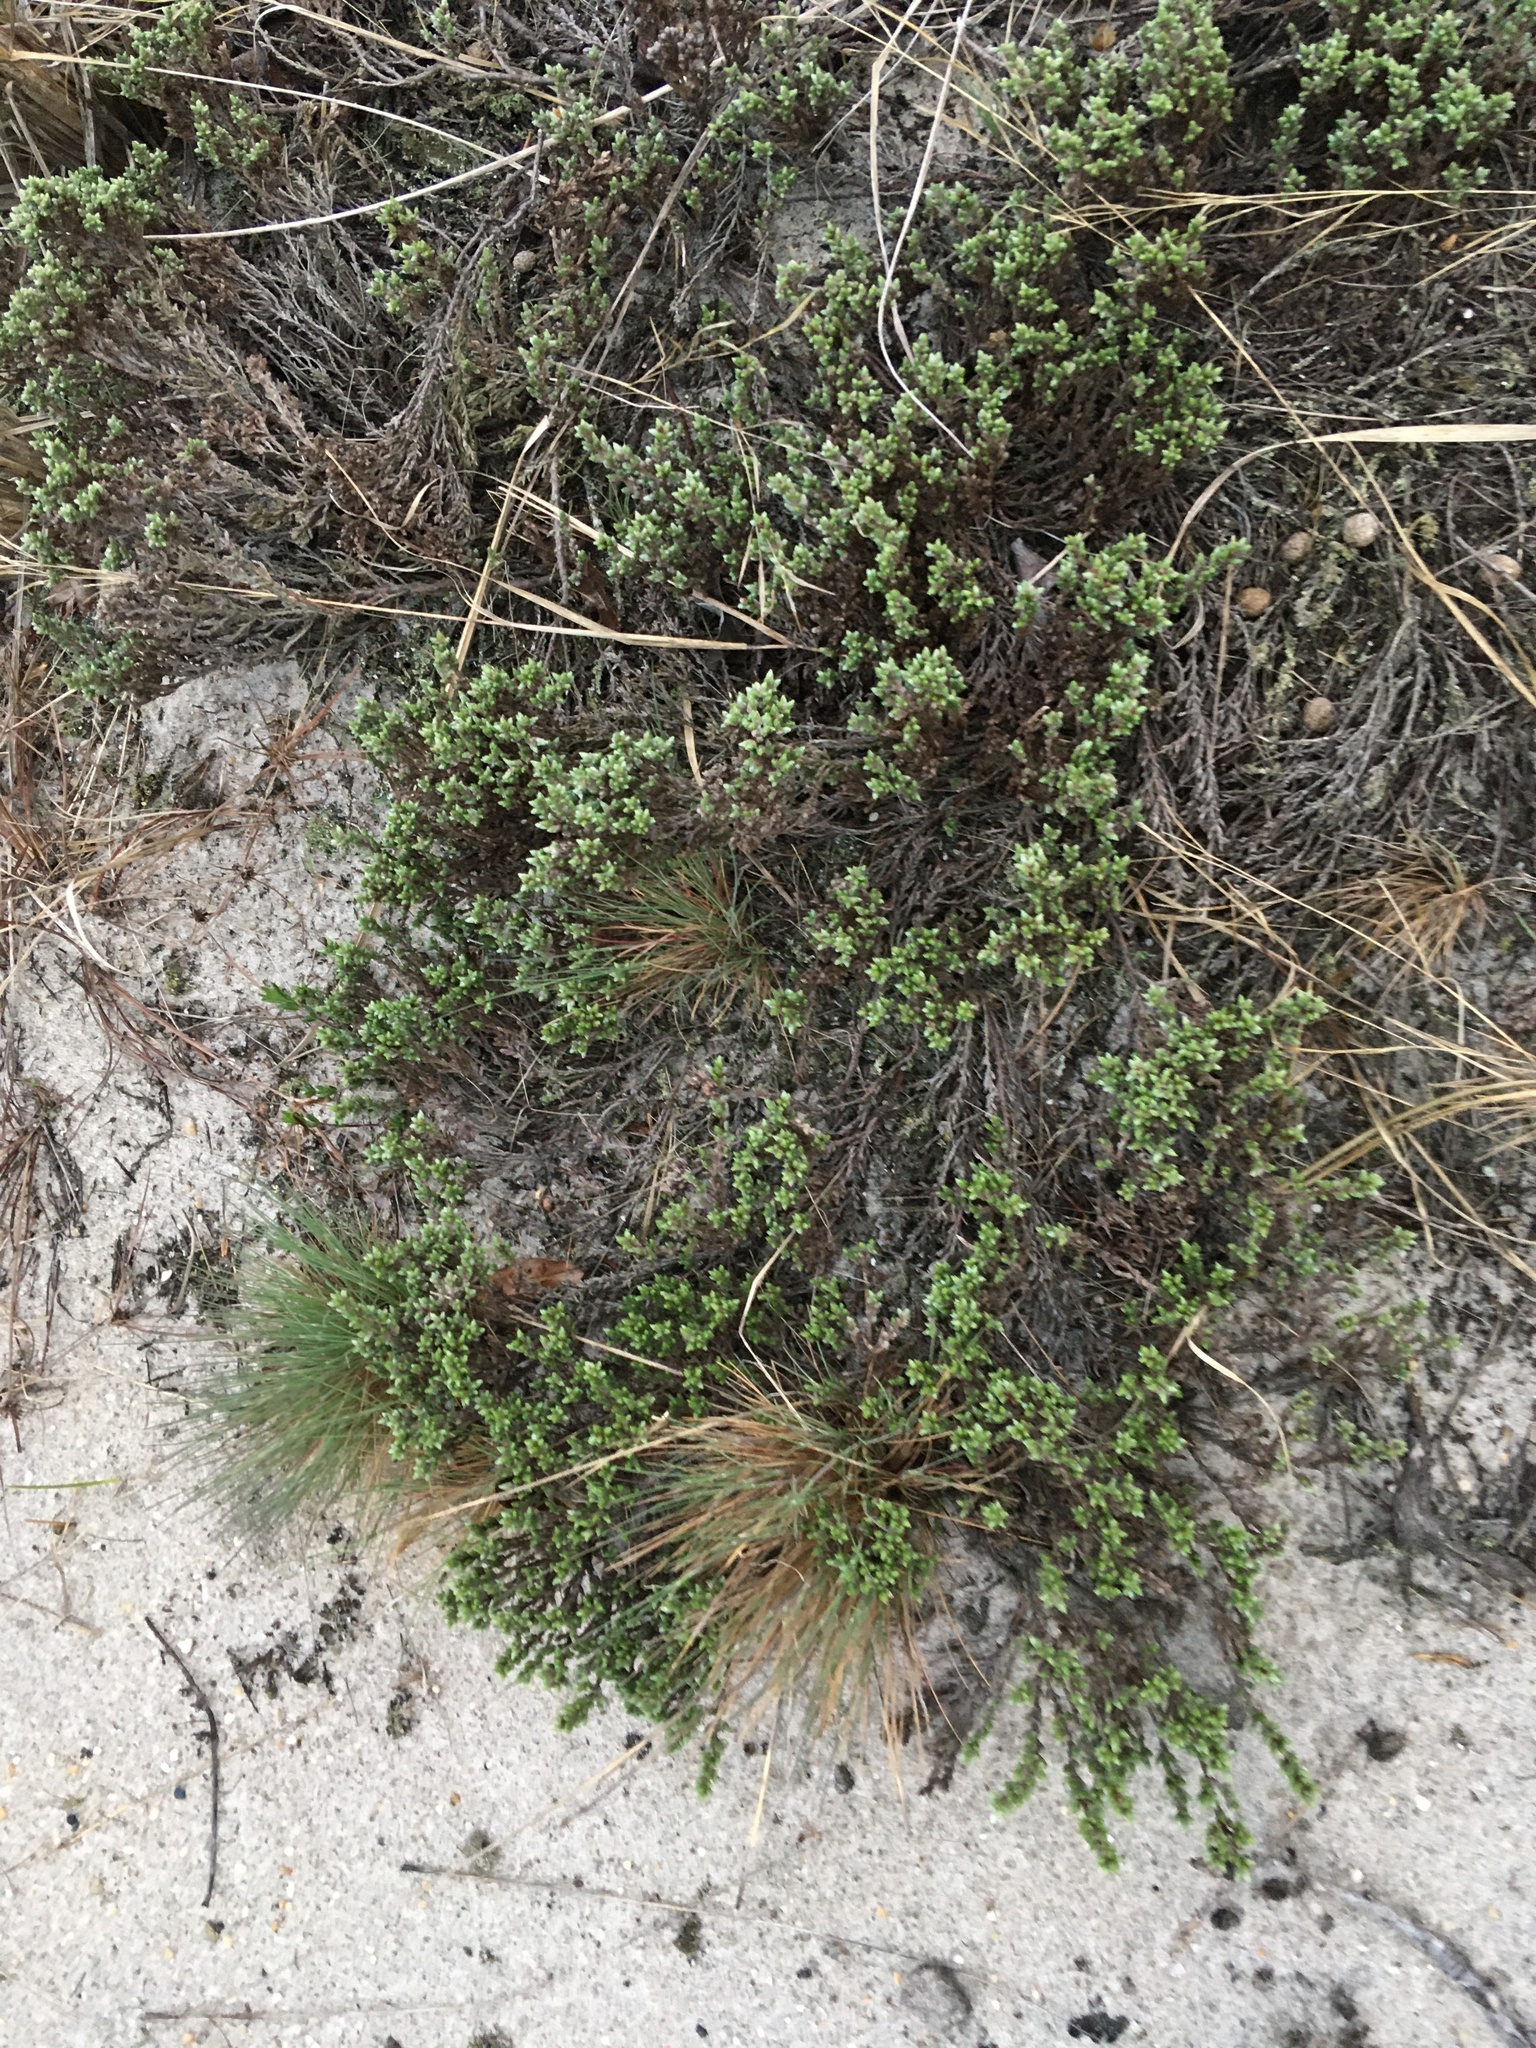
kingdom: Plantae
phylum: Tracheophyta
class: Magnoliopsida
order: Malvales
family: Cistaceae
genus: Hudsonia
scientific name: Hudsonia tomentosa
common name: Beach-heath
